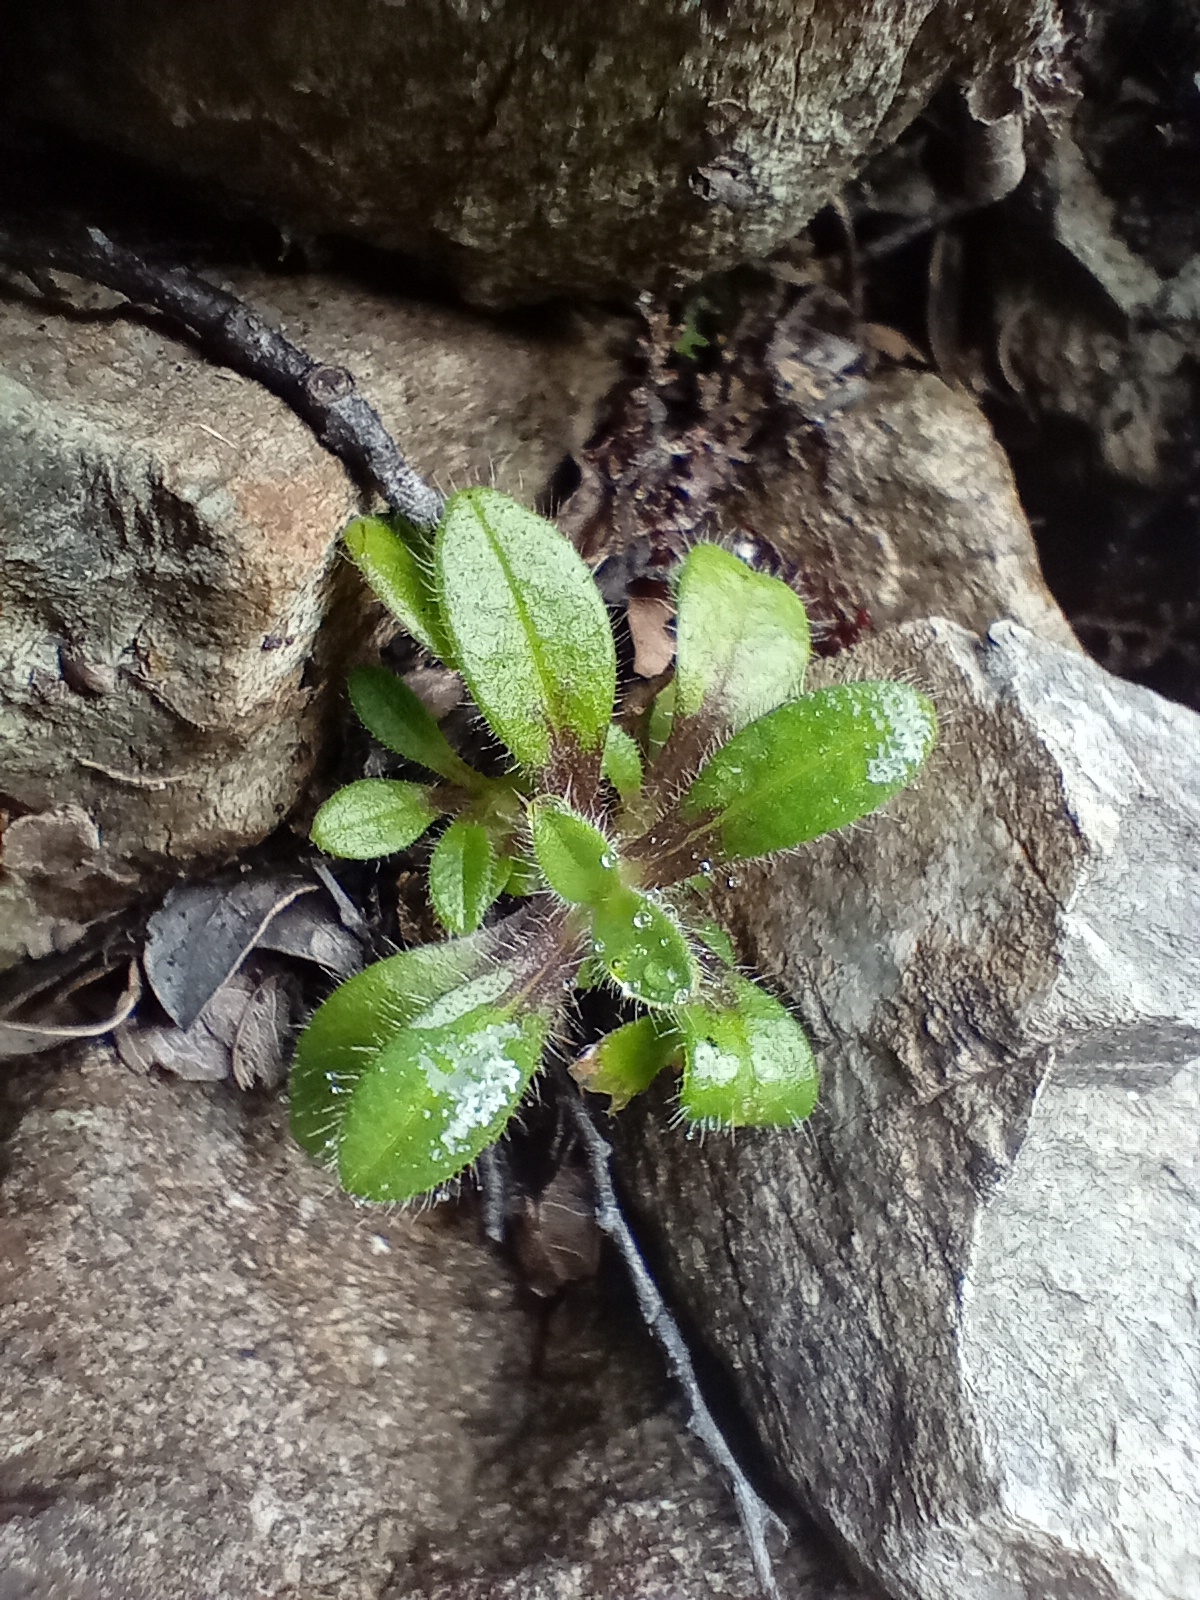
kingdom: Plantae
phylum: Tracheophyta
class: Magnoliopsida
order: Boraginales
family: Boraginaceae
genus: Myosotis
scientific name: Myosotis antarctica
